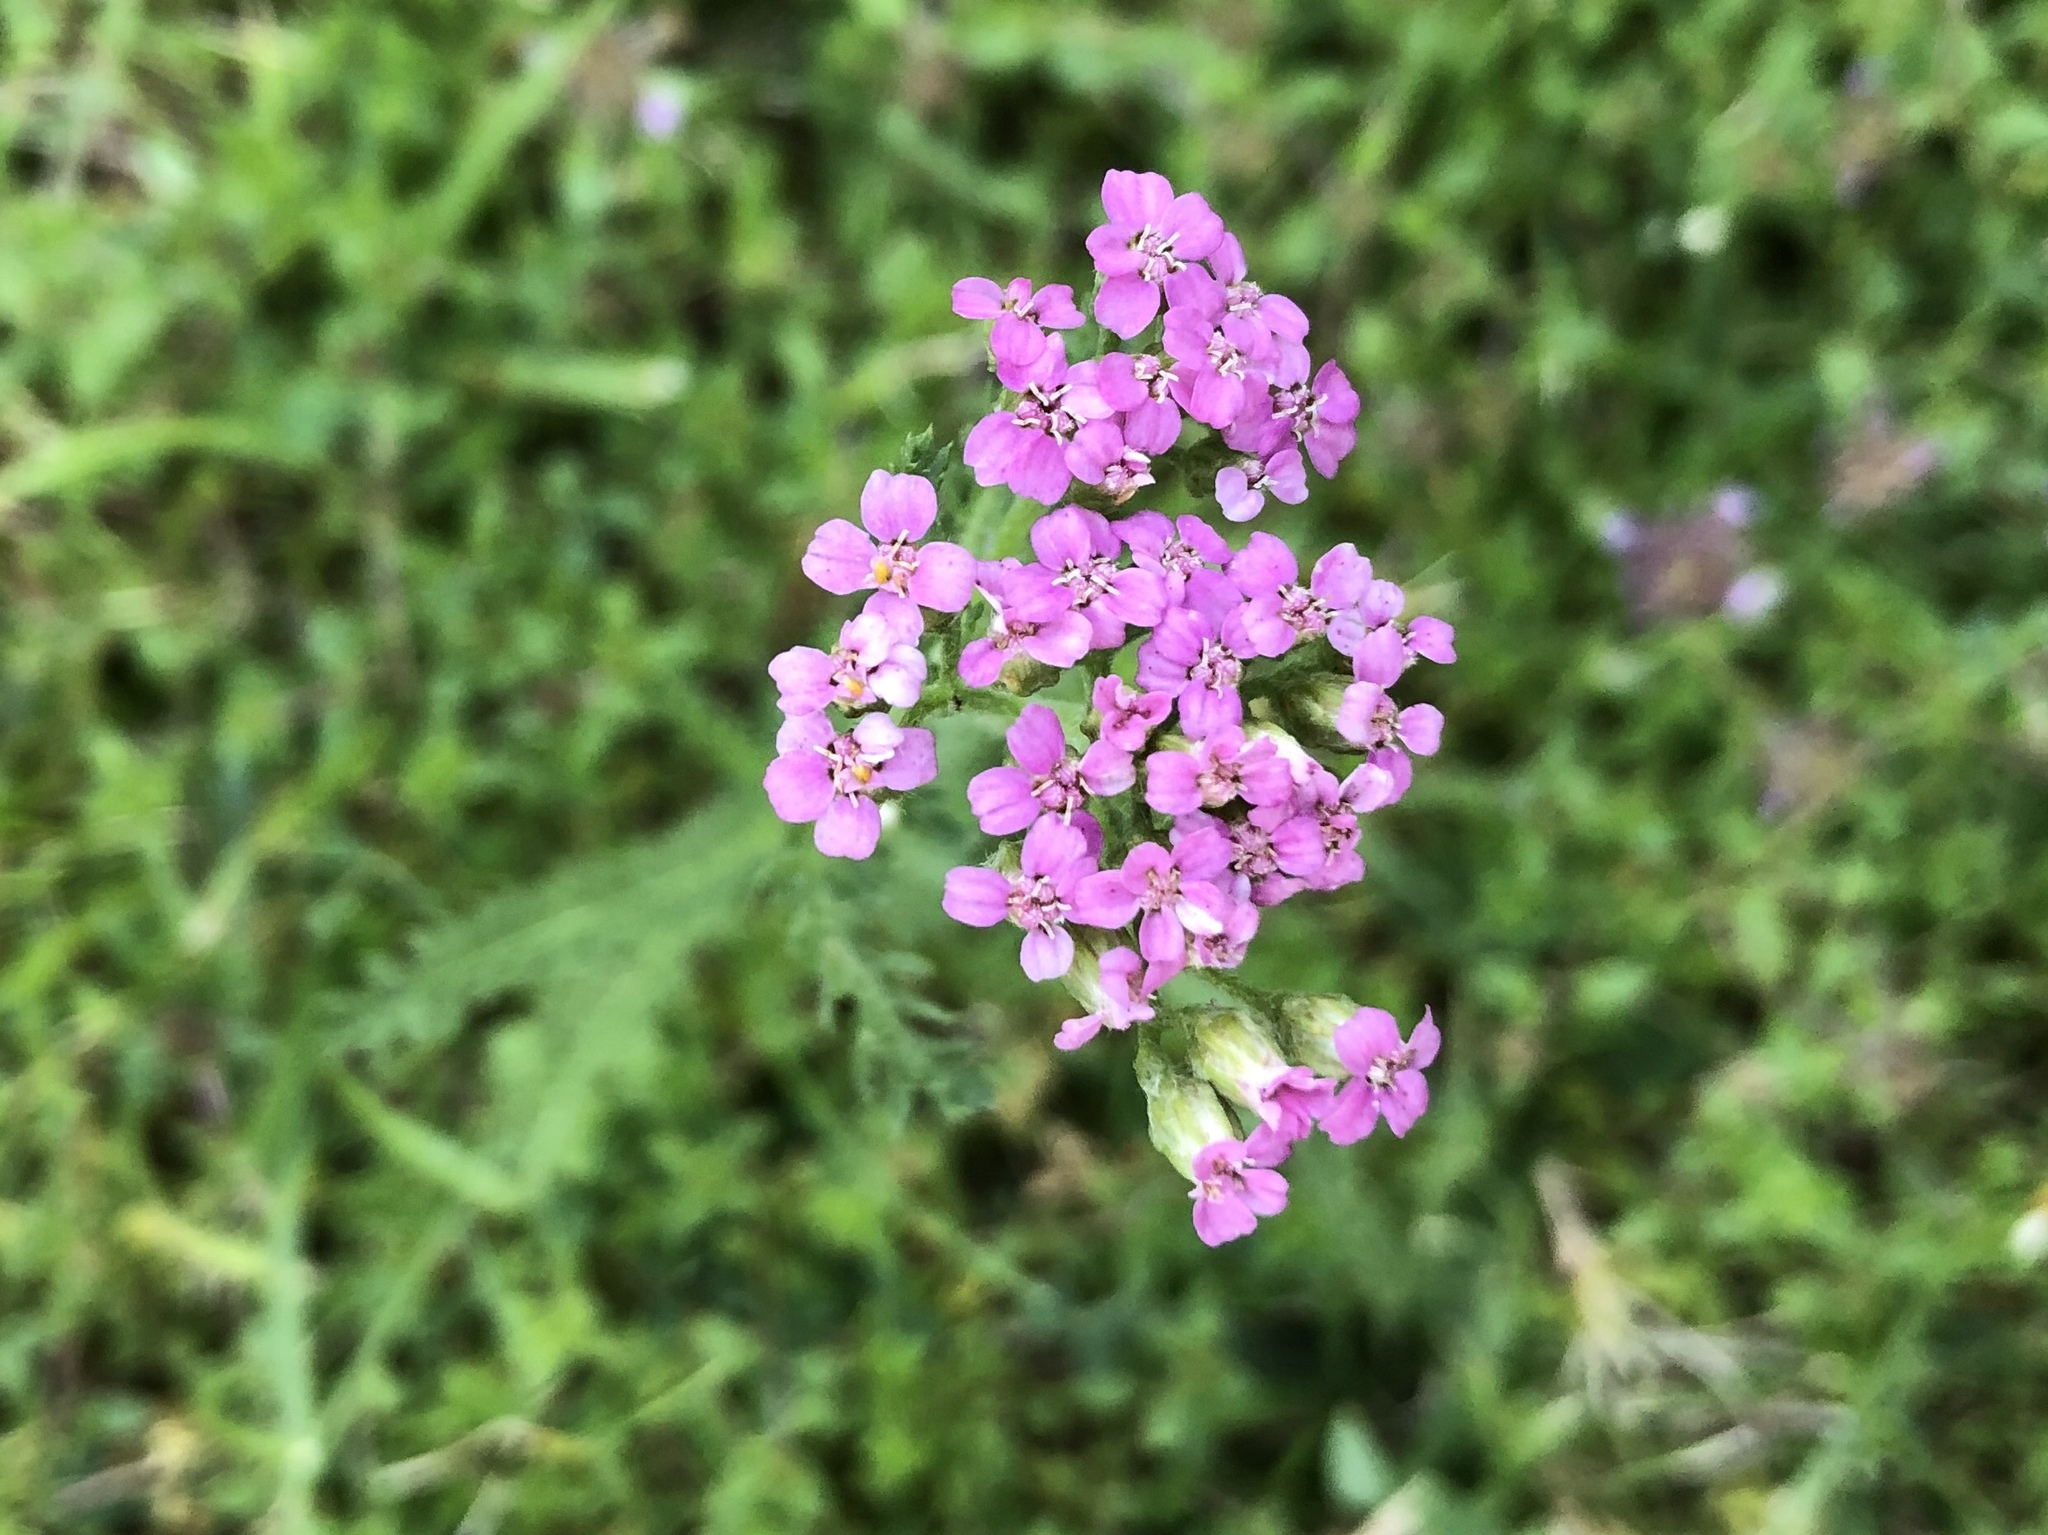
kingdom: Plantae
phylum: Tracheophyta
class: Magnoliopsida
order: Asterales
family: Asteraceae
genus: Achillea
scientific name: Achillea millefolium
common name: Yarrow
